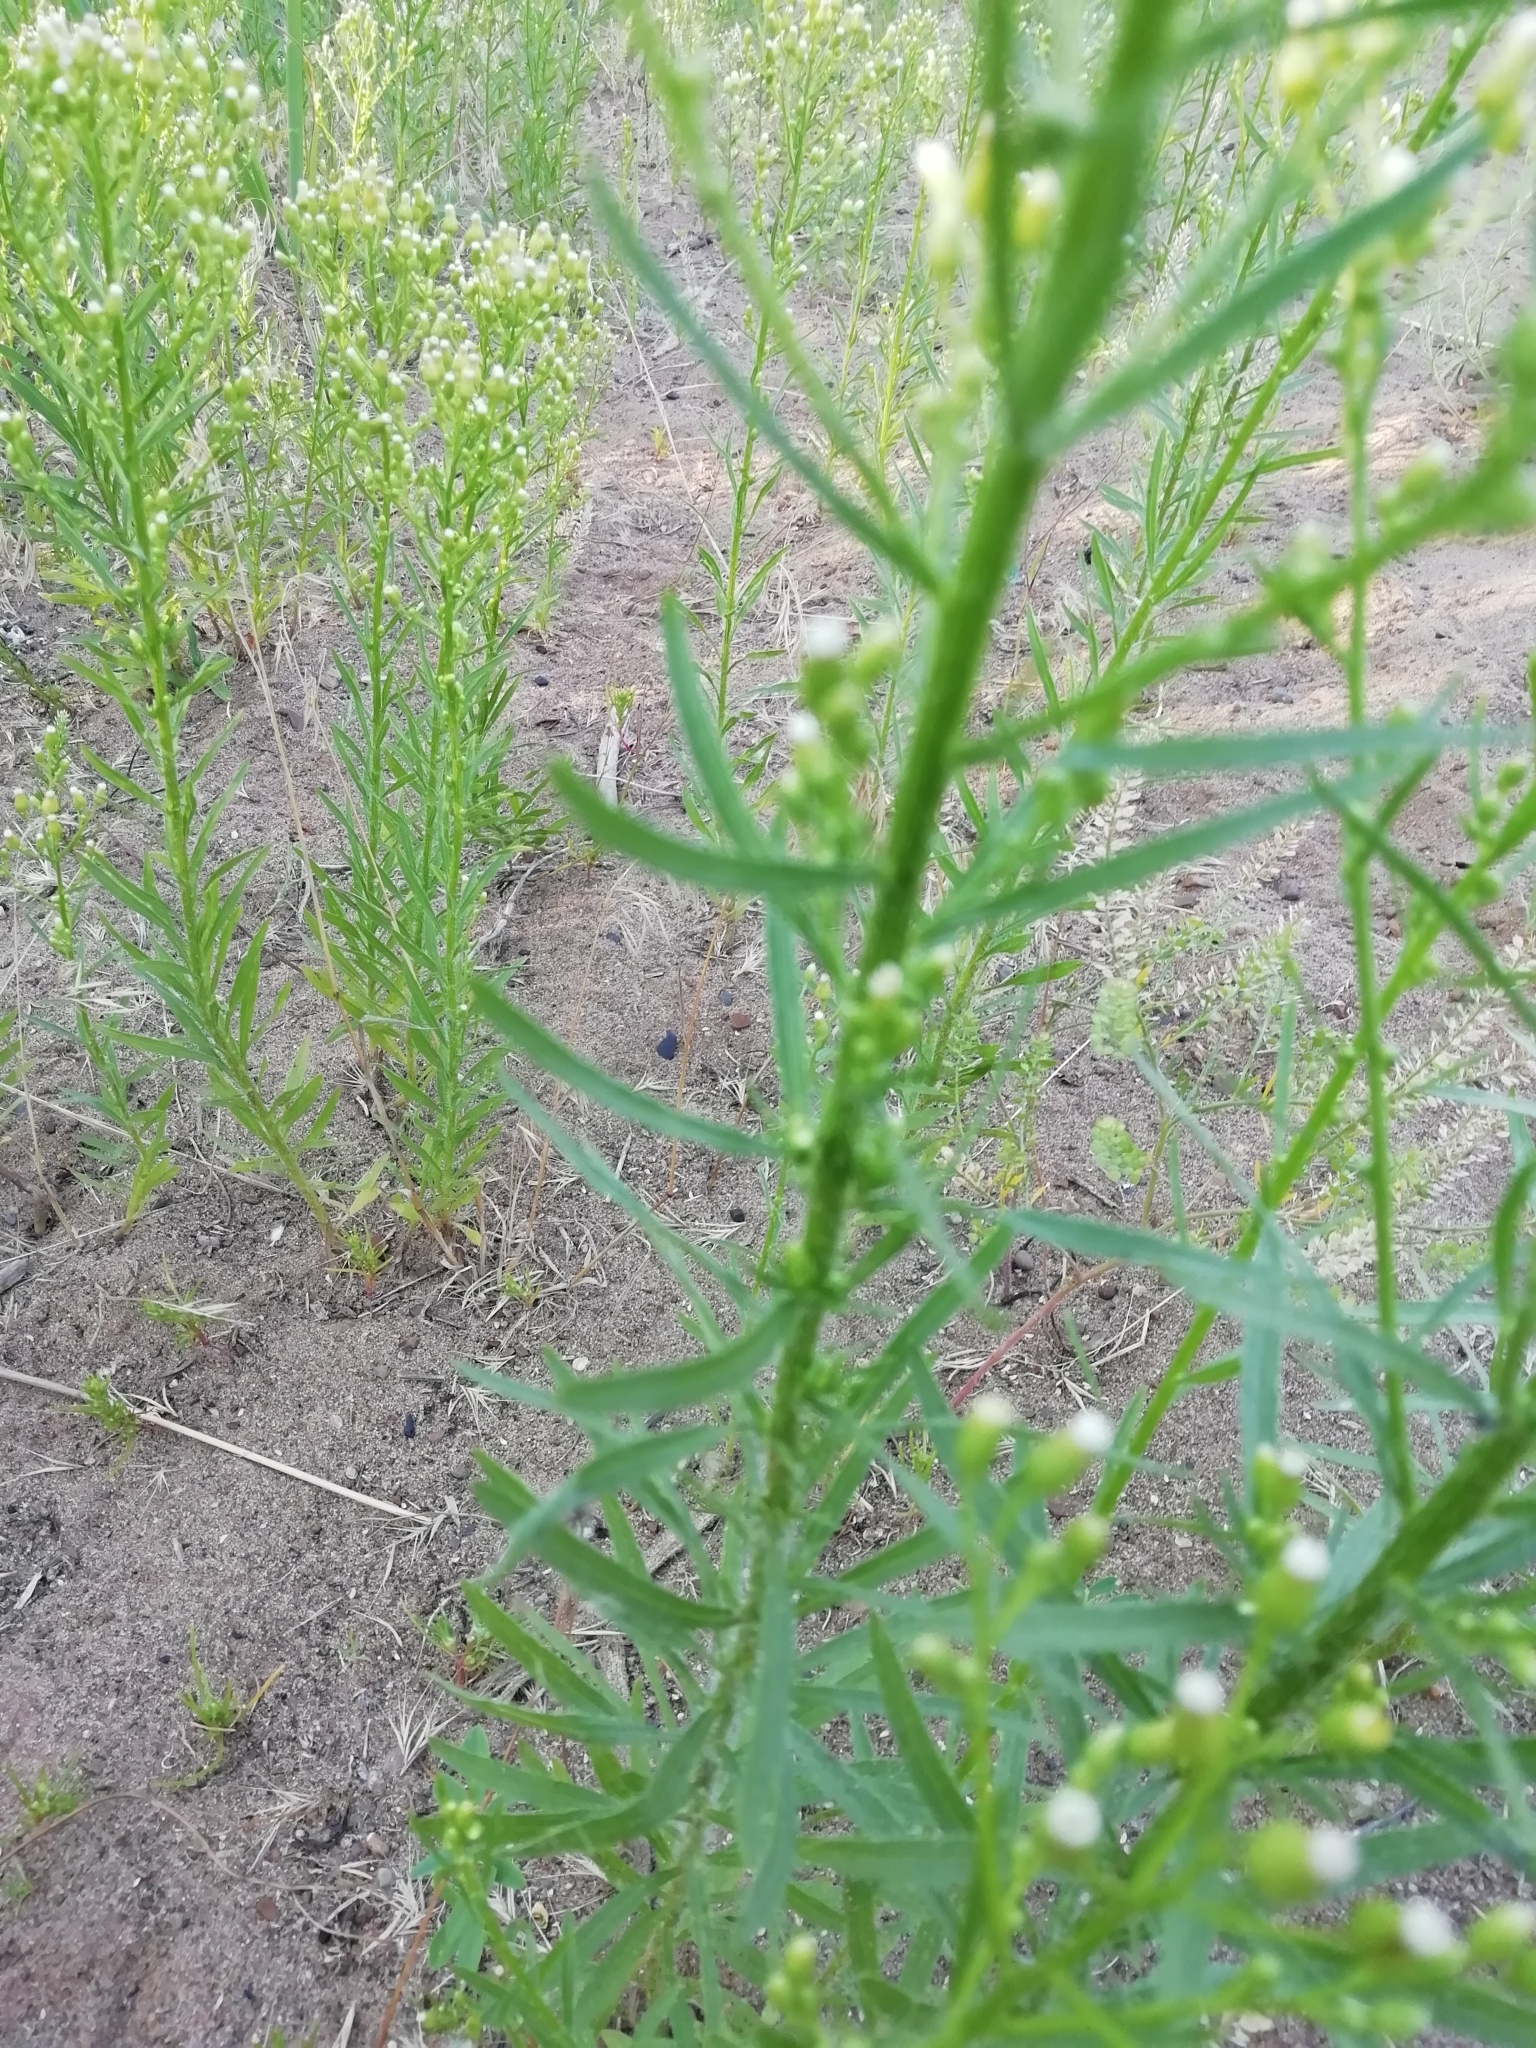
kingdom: Plantae
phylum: Tracheophyta
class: Magnoliopsida
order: Asterales
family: Asteraceae
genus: Erigeron
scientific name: Erigeron canadensis
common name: Canadian fleabane
